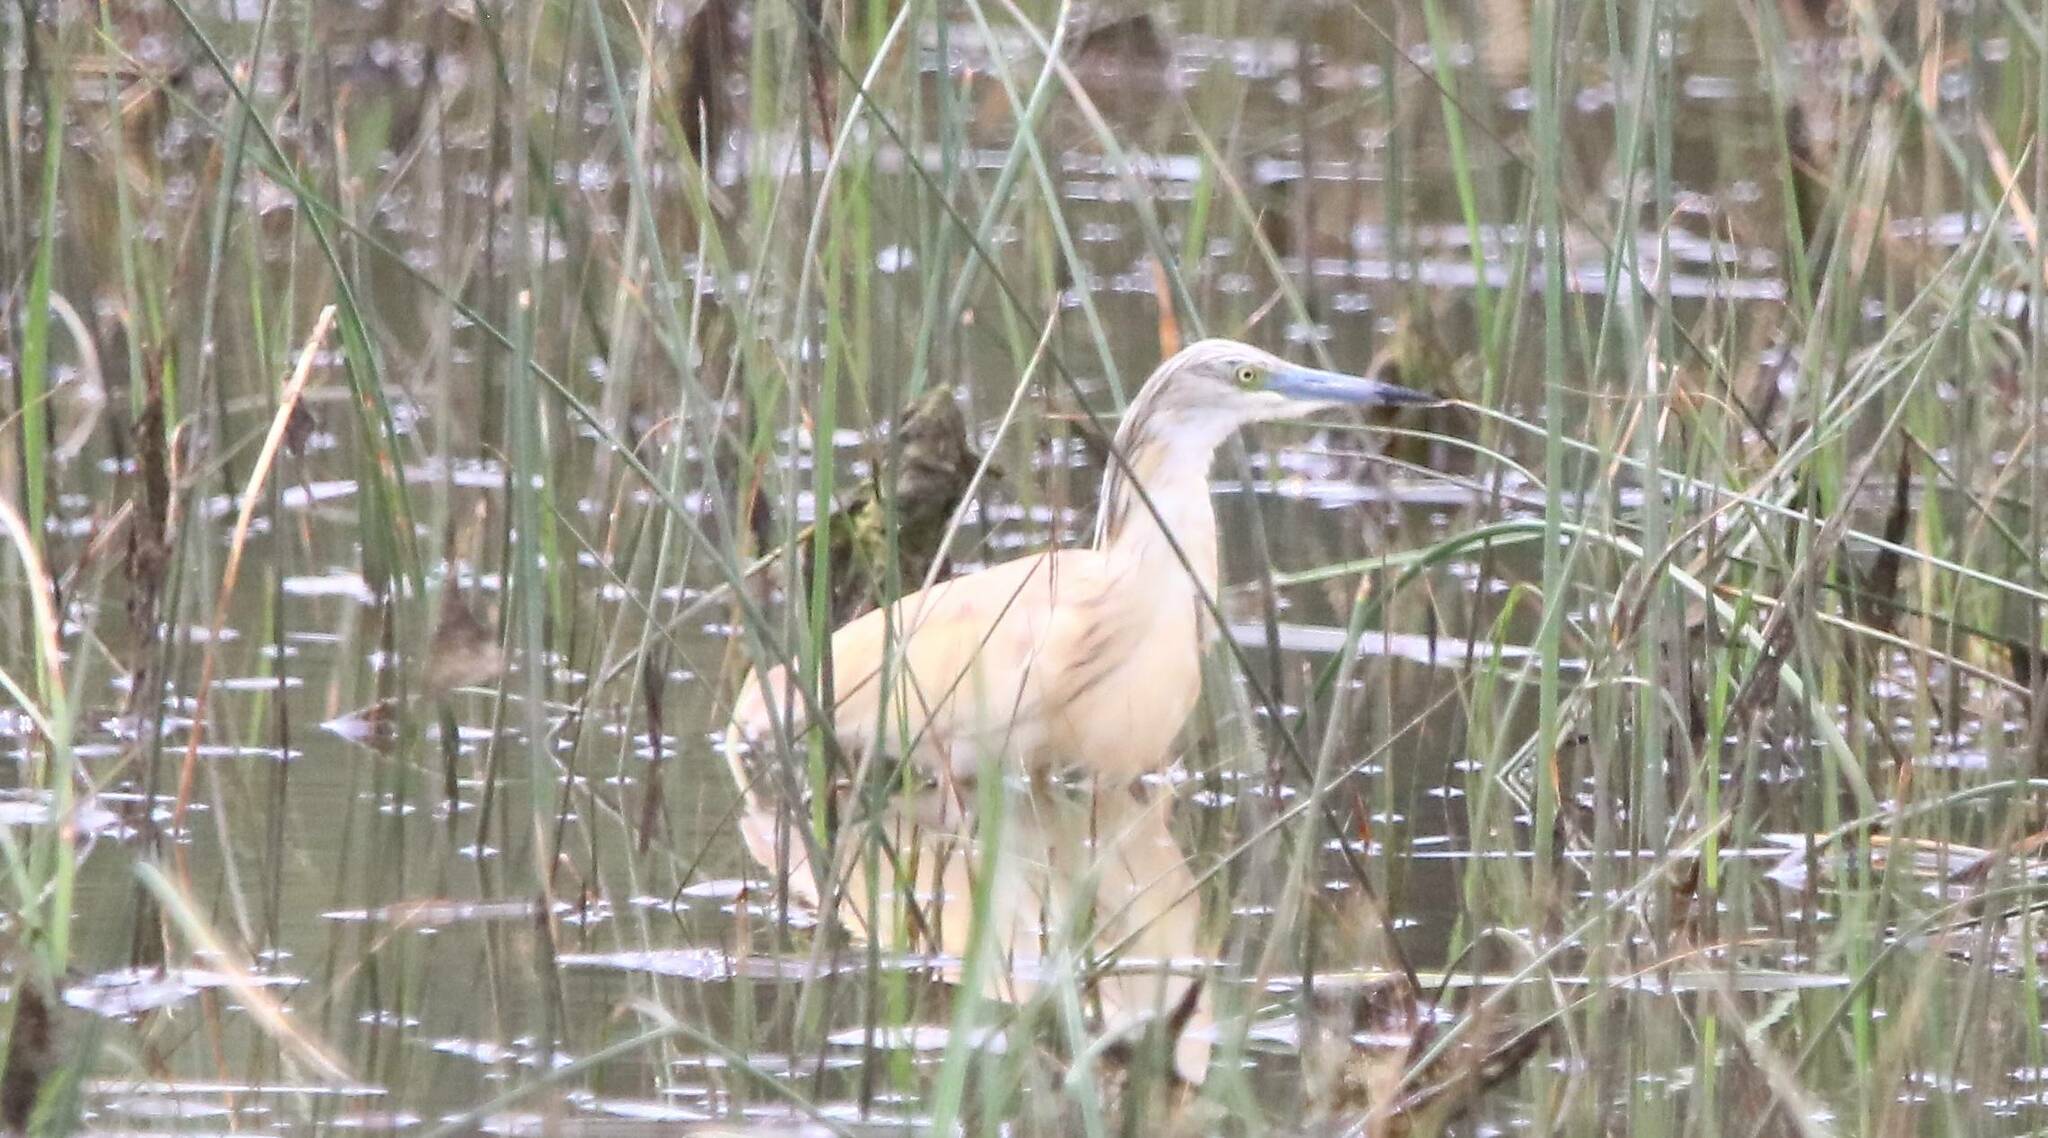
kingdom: Animalia
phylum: Chordata
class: Aves
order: Pelecaniformes
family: Ardeidae
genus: Ardeola
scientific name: Ardeola ralloides
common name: Squacco heron
